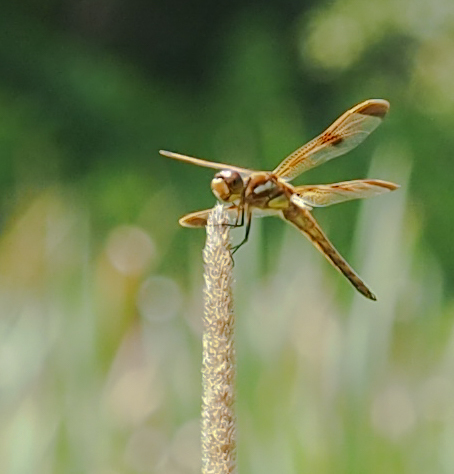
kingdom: Animalia
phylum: Arthropoda
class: Insecta
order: Odonata
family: Libellulidae
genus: Libellula
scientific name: Libellula semifasciata
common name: Painted skimmer
